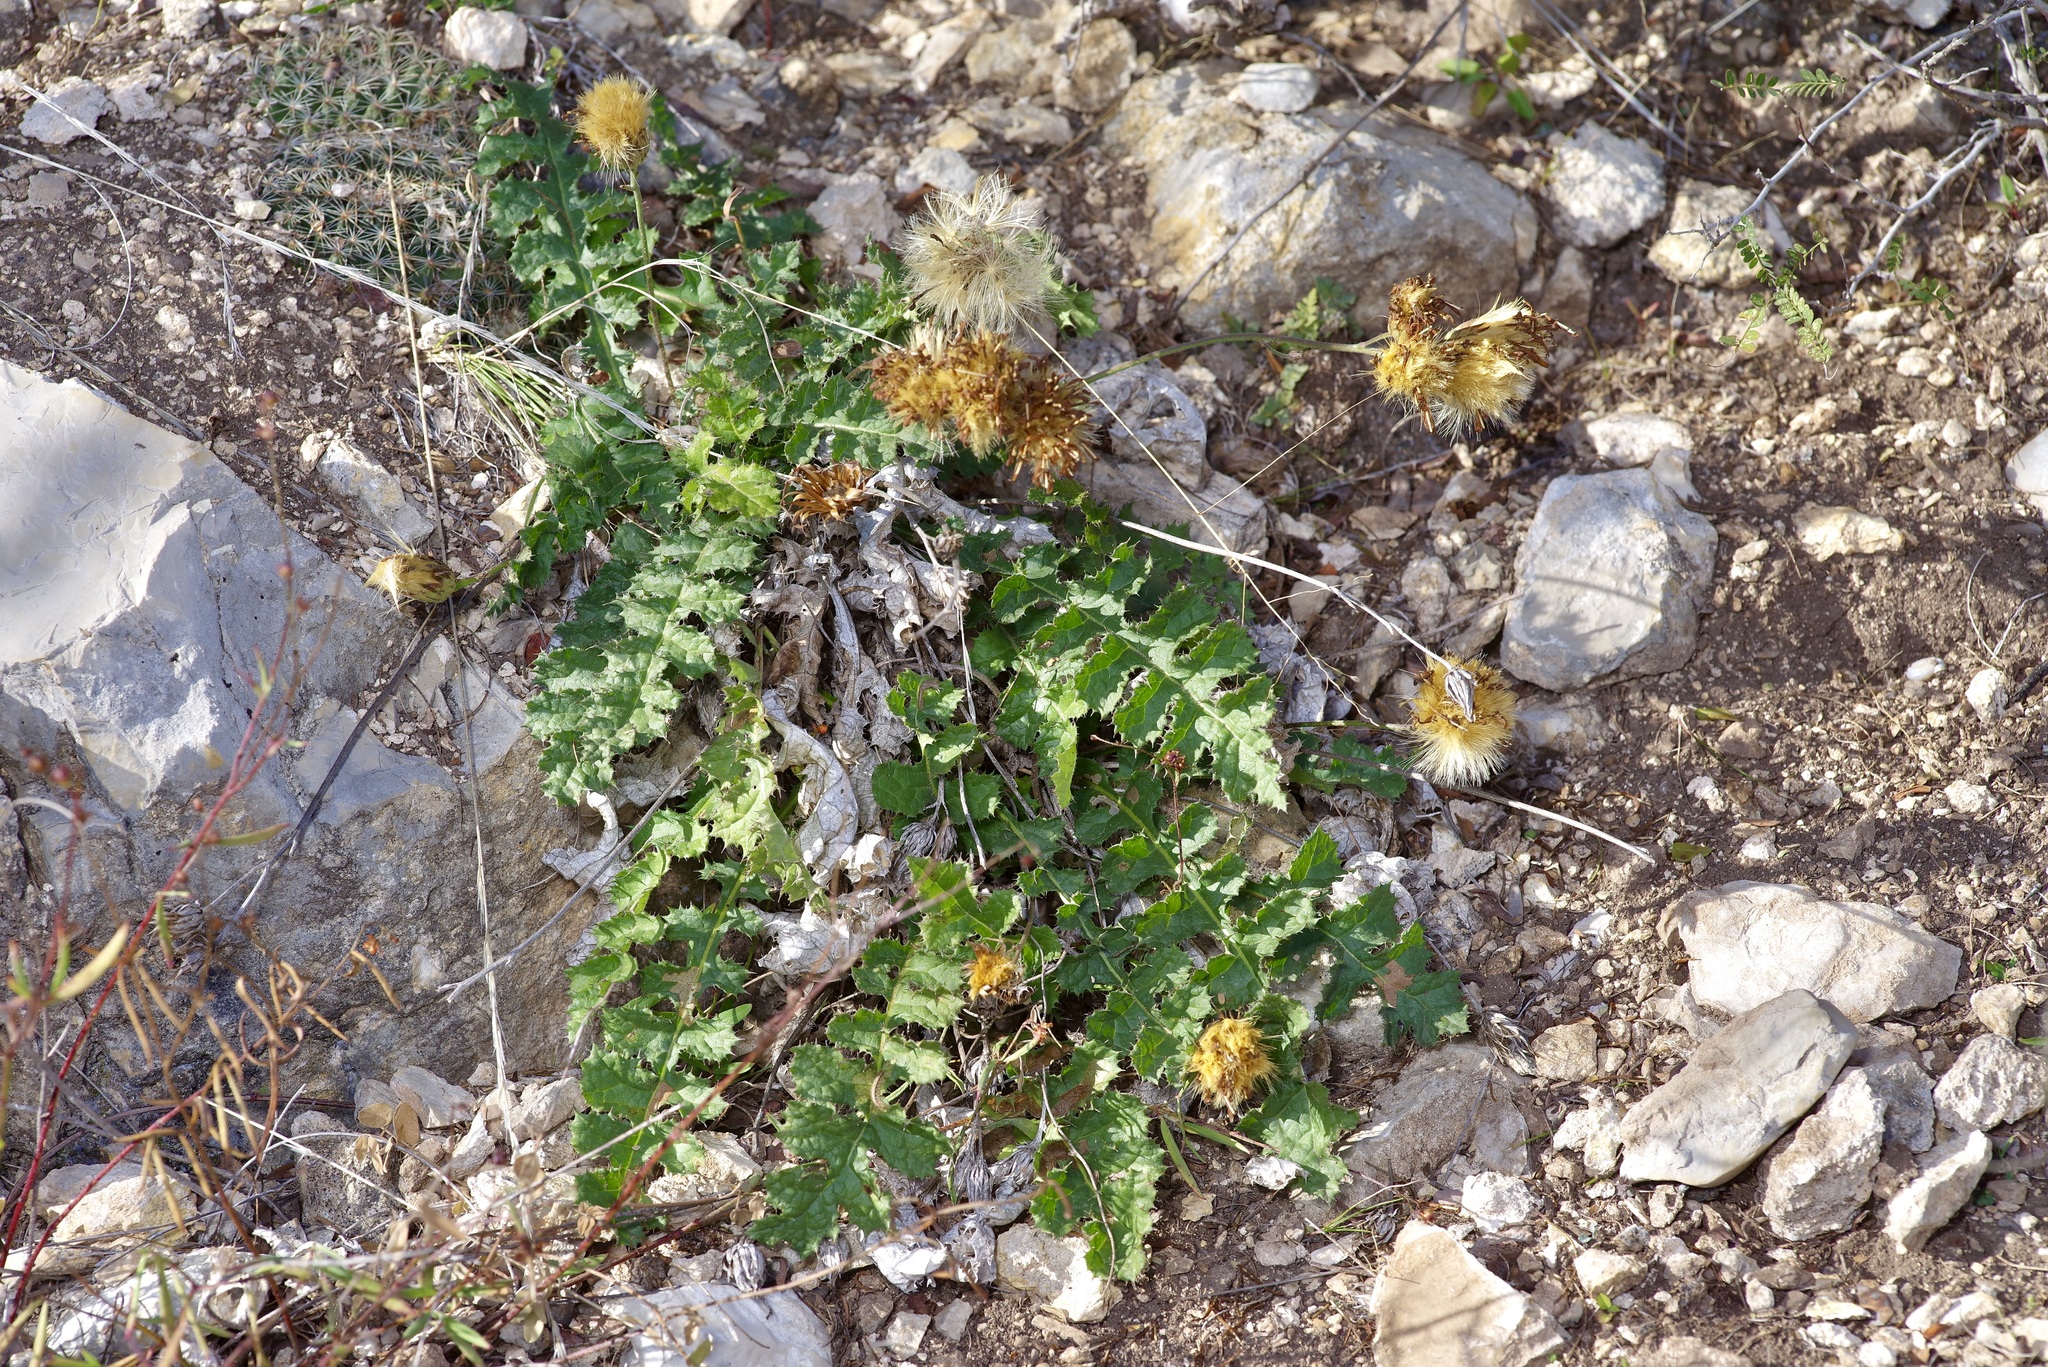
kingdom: Plantae
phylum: Tracheophyta
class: Magnoliopsida
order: Asterales
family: Asteraceae
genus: Acourtia
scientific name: Acourtia runcinata
